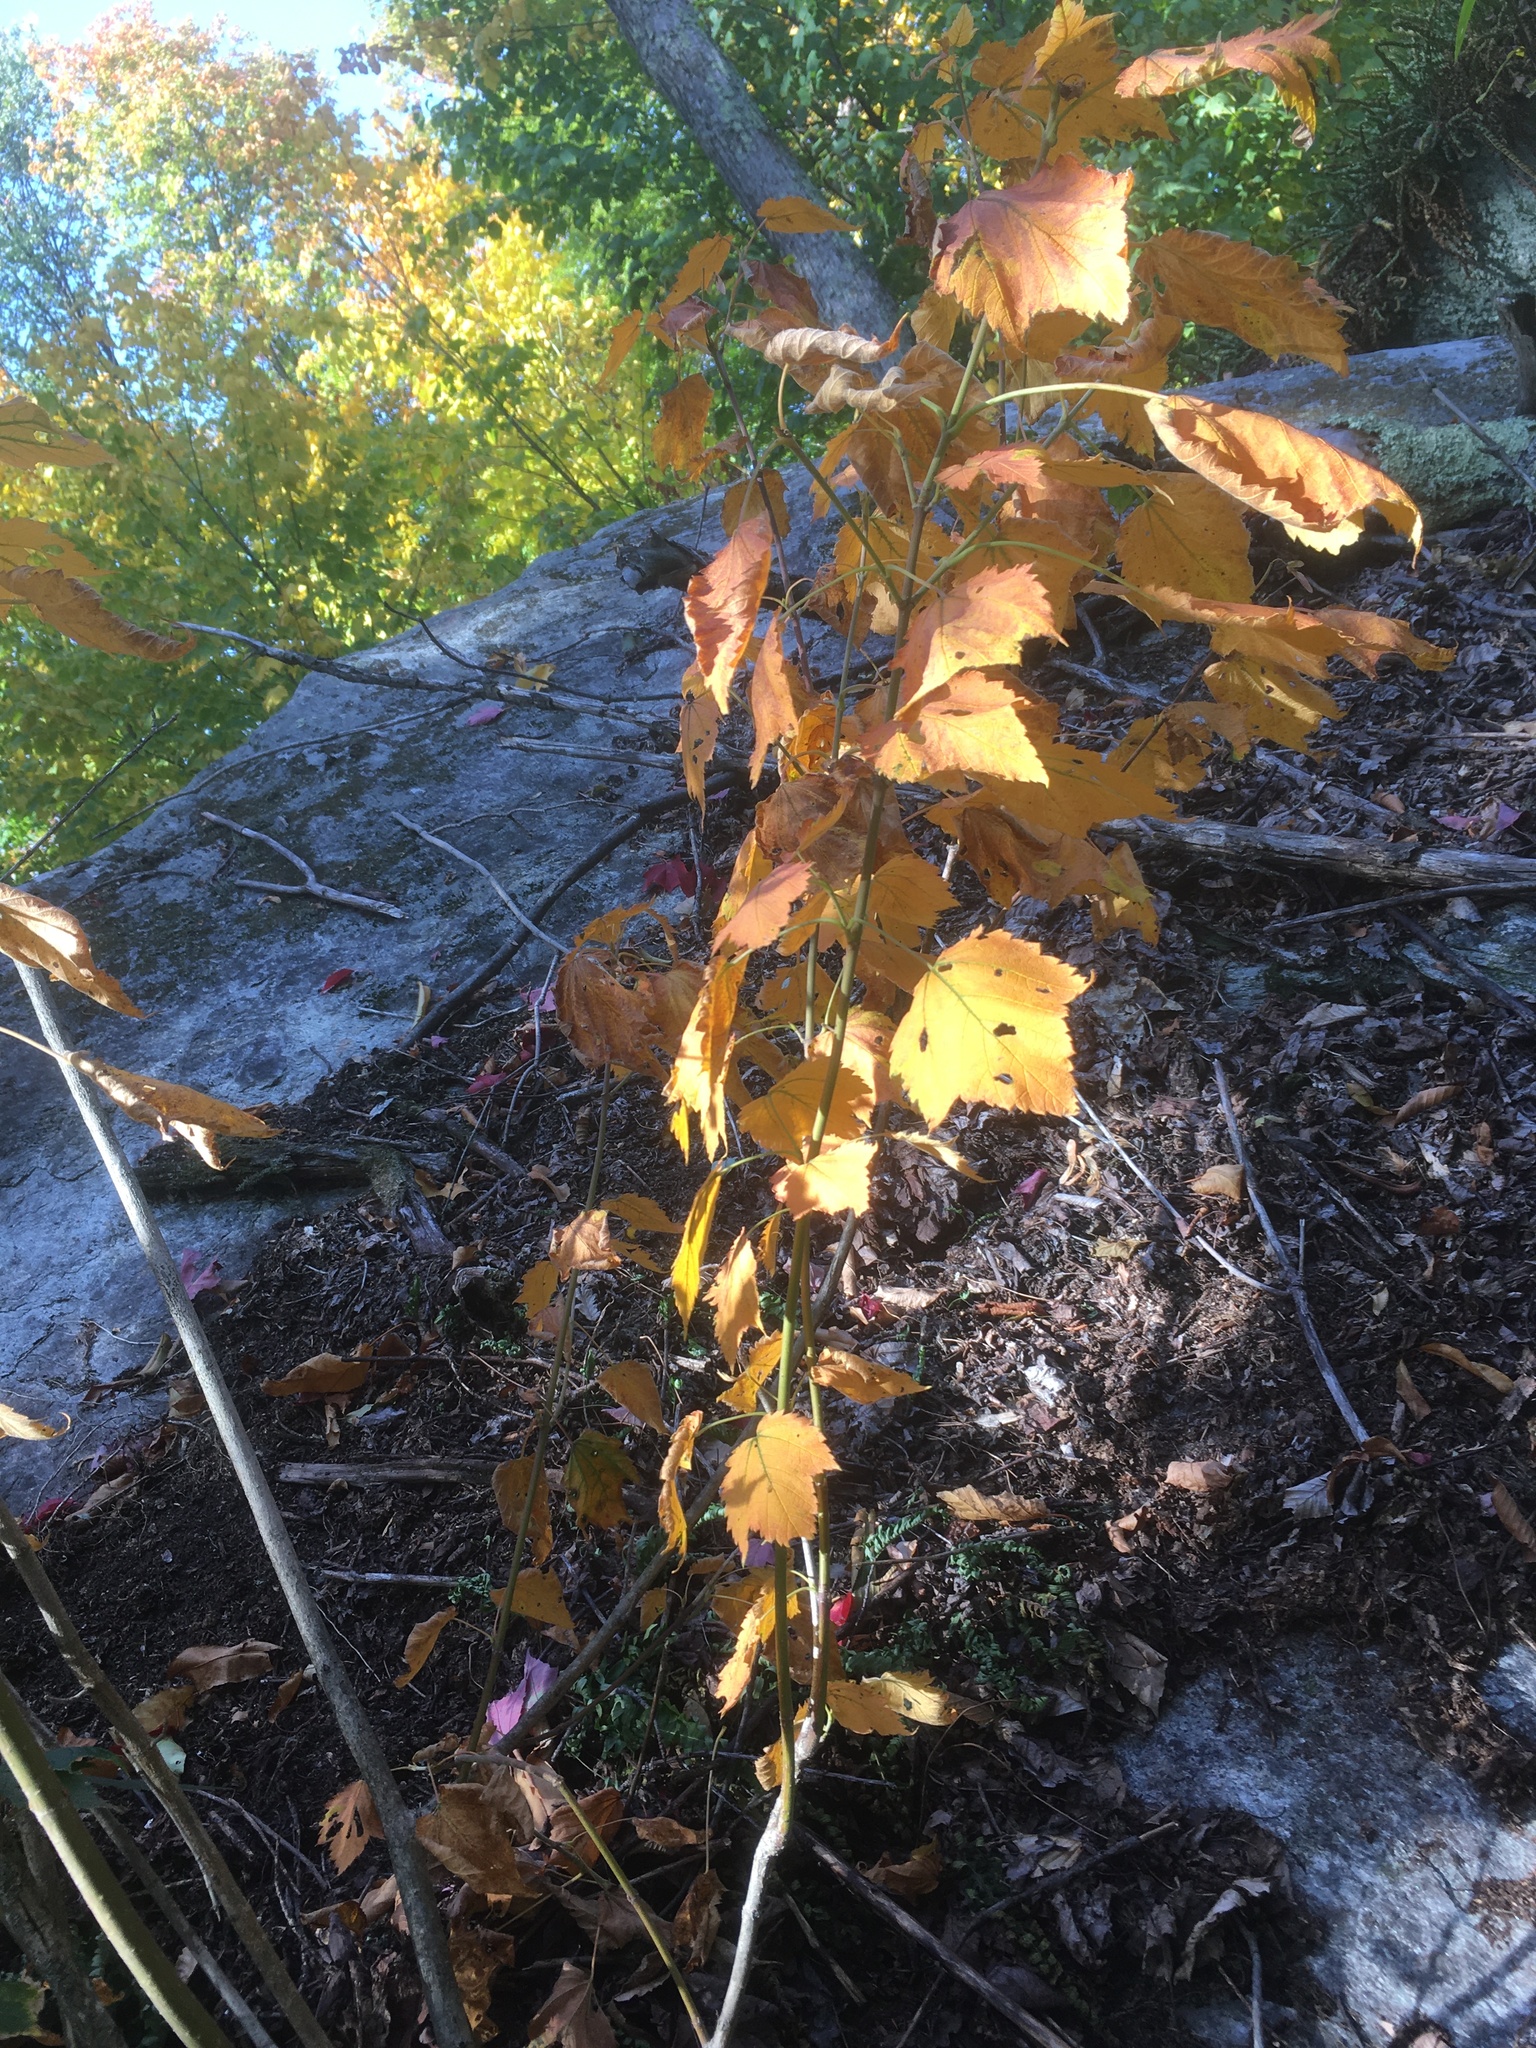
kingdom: Plantae
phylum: Tracheophyta
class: Magnoliopsida
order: Sapindales
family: Sapindaceae
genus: Acer
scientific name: Acer spicatum
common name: Mountain maple
